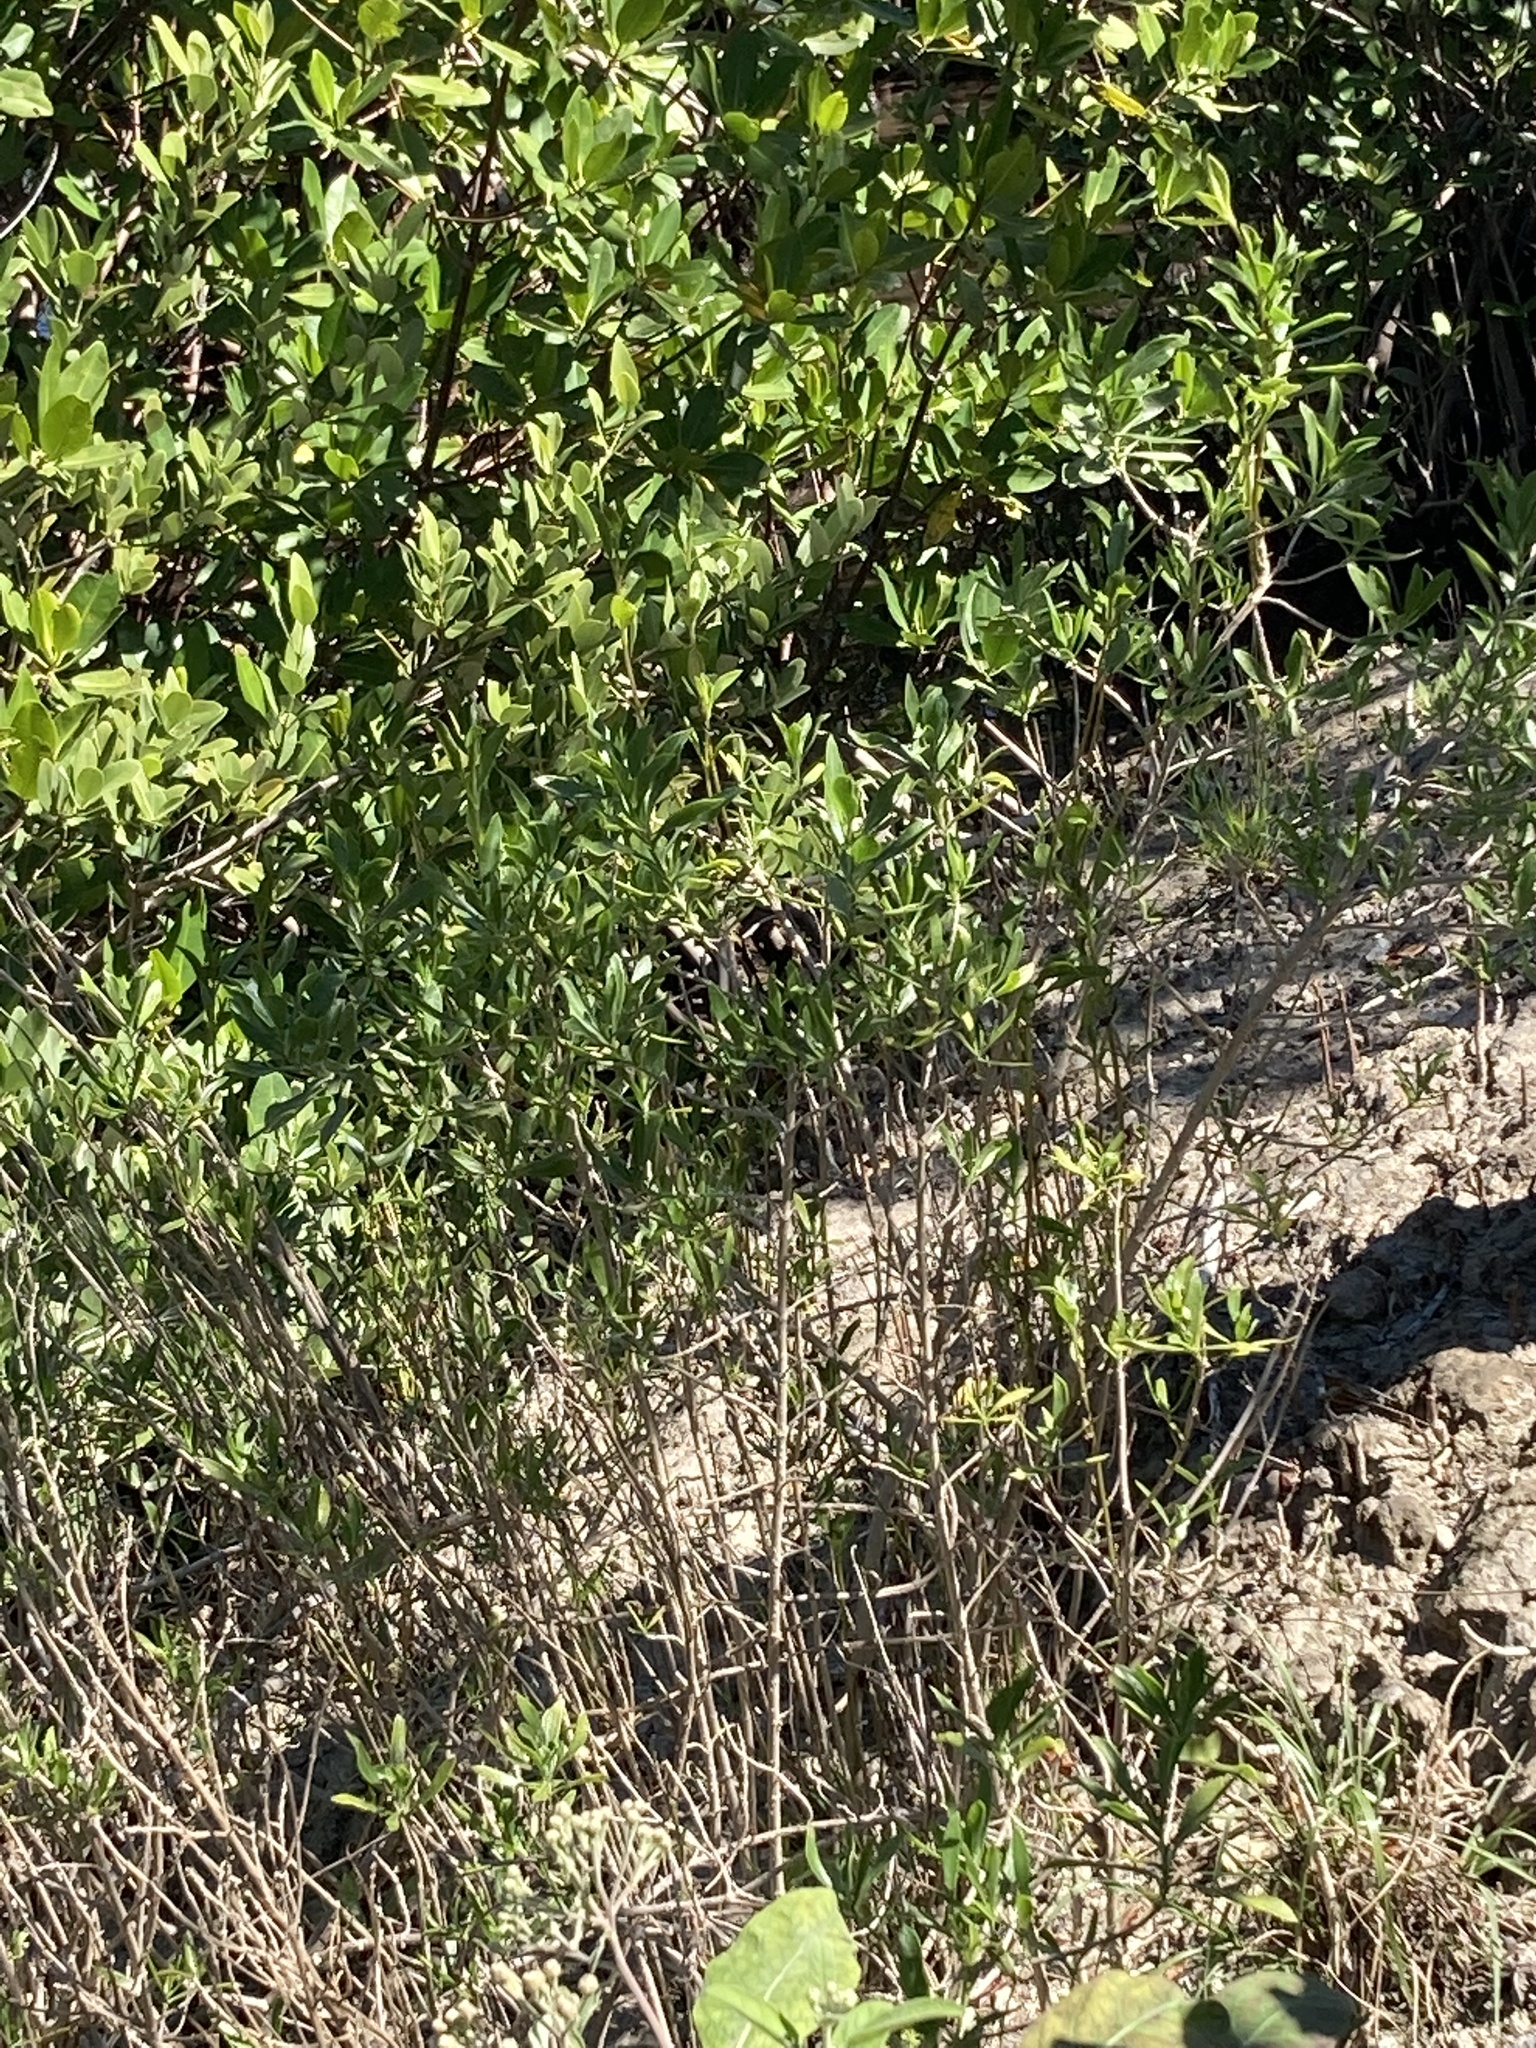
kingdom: Plantae
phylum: Tracheophyta
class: Magnoliopsida
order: Asterales
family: Asteraceae
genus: Borrichia
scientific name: Borrichia frutescens
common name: Sea oxeye
